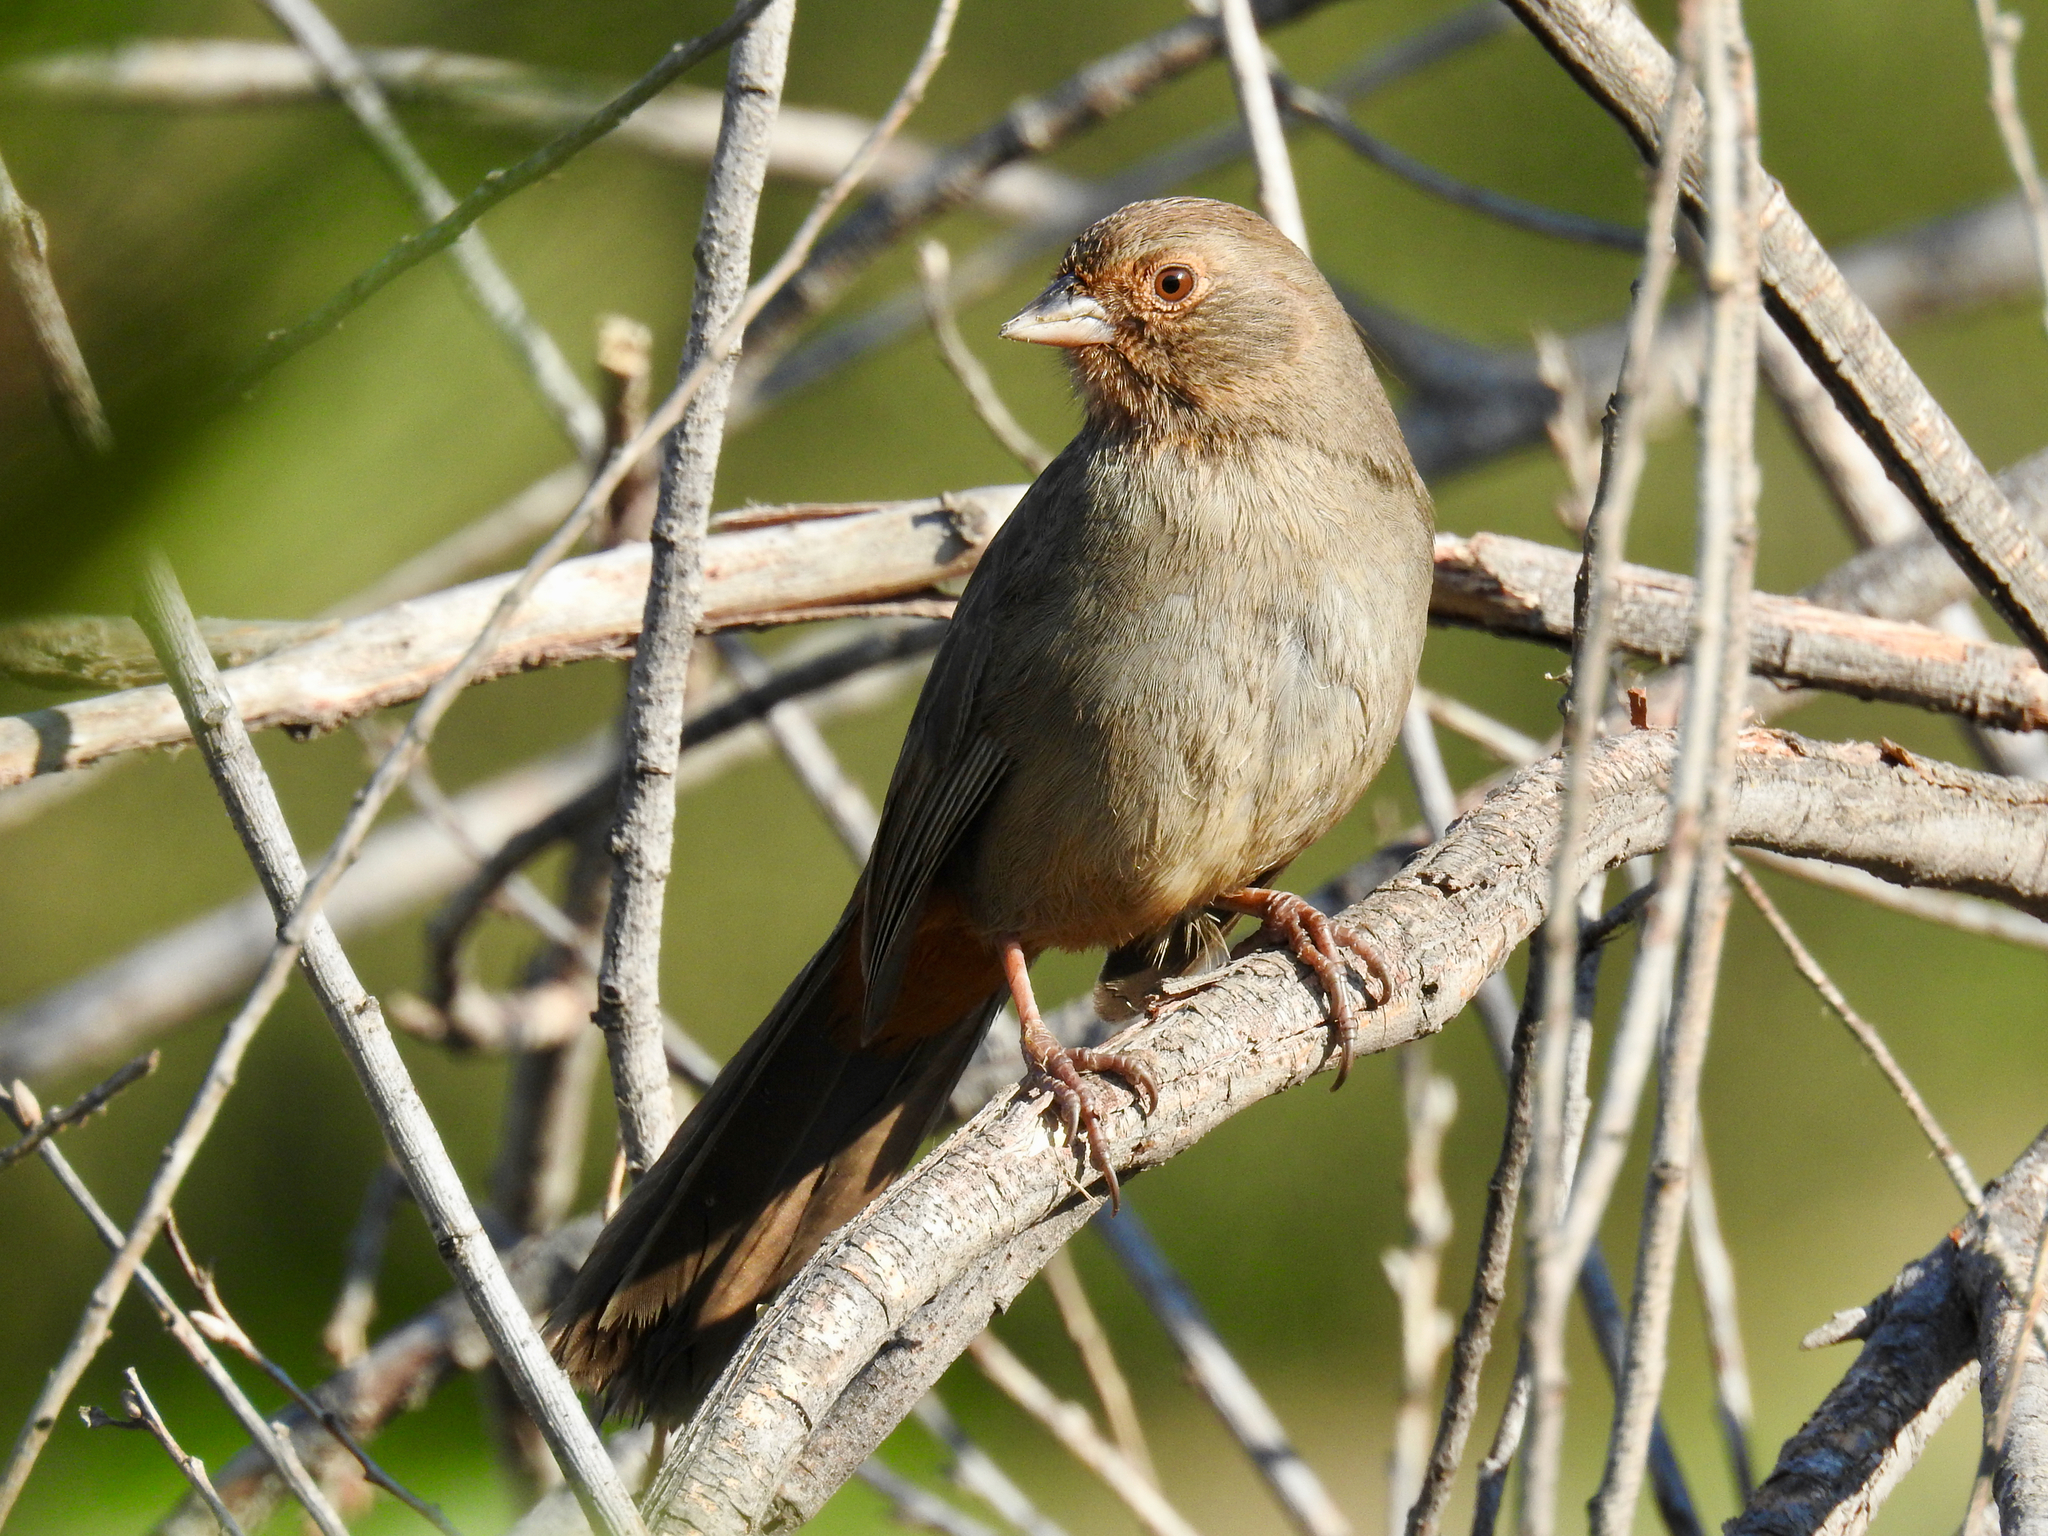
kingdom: Animalia
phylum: Chordata
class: Aves
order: Passeriformes
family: Passerellidae
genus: Melozone
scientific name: Melozone crissalis
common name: California towhee
